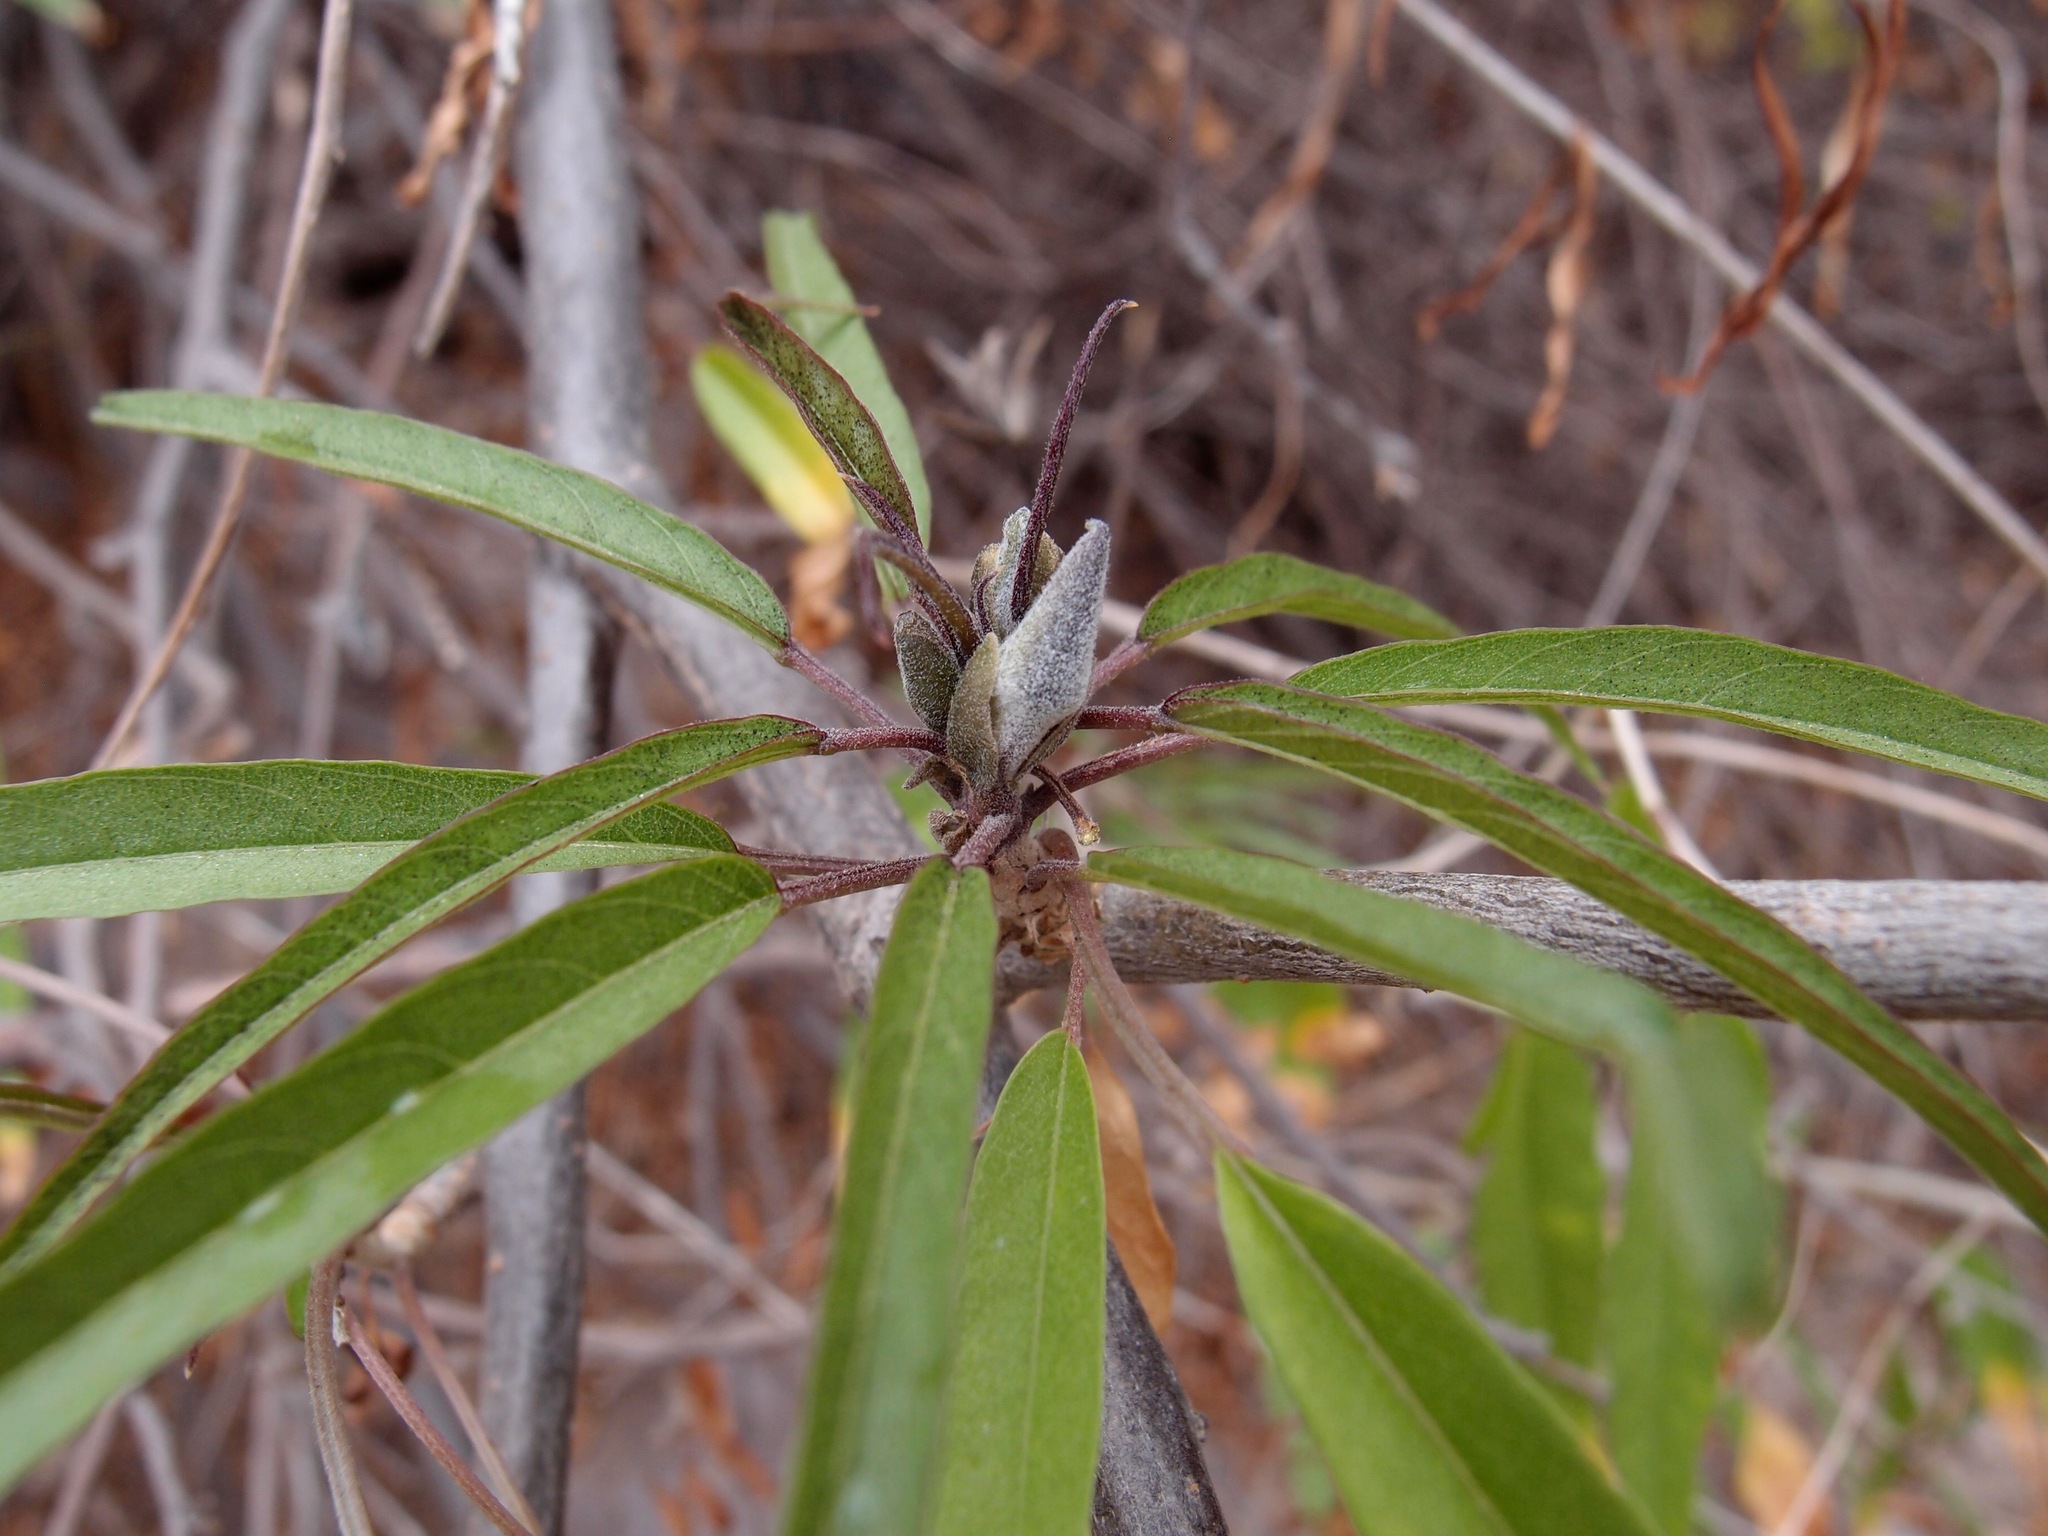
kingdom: Plantae
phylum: Tracheophyta
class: Magnoliopsida
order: Solanales
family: Convolvulaceae
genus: Ipomoea
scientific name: Ipomoea seaania
